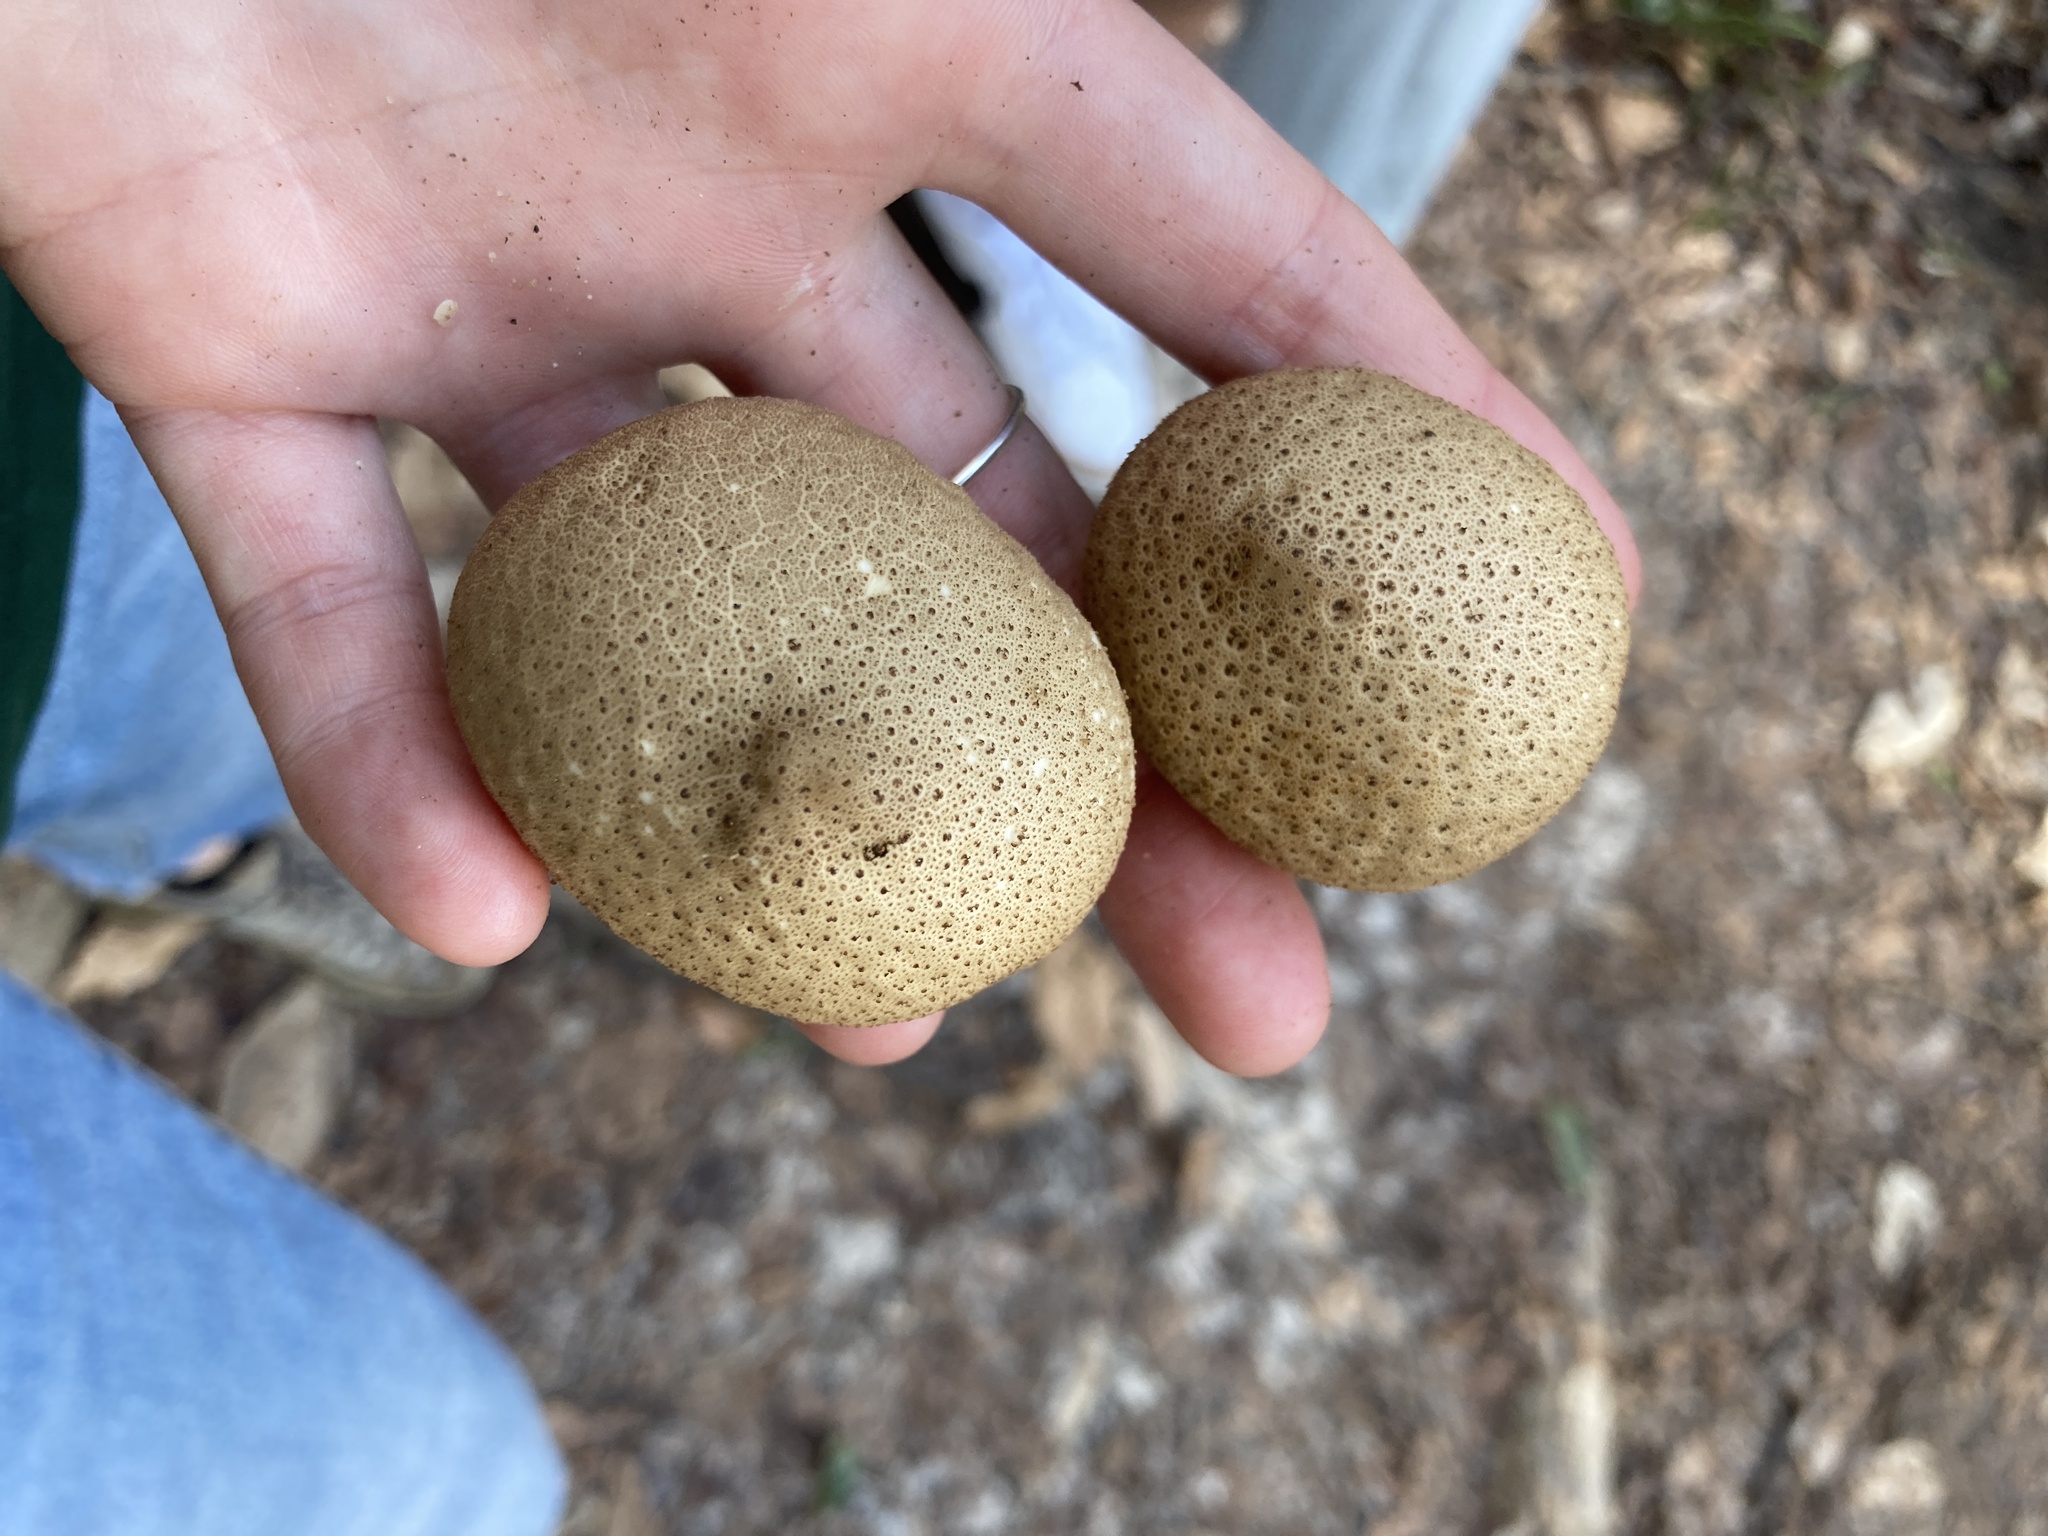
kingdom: Fungi
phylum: Basidiomycota
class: Agaricomycetes
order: Agaricales
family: Lycoperdaceae
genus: Apioperdon
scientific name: Apioperdon pyriforme
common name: Pear-shaped puffball
